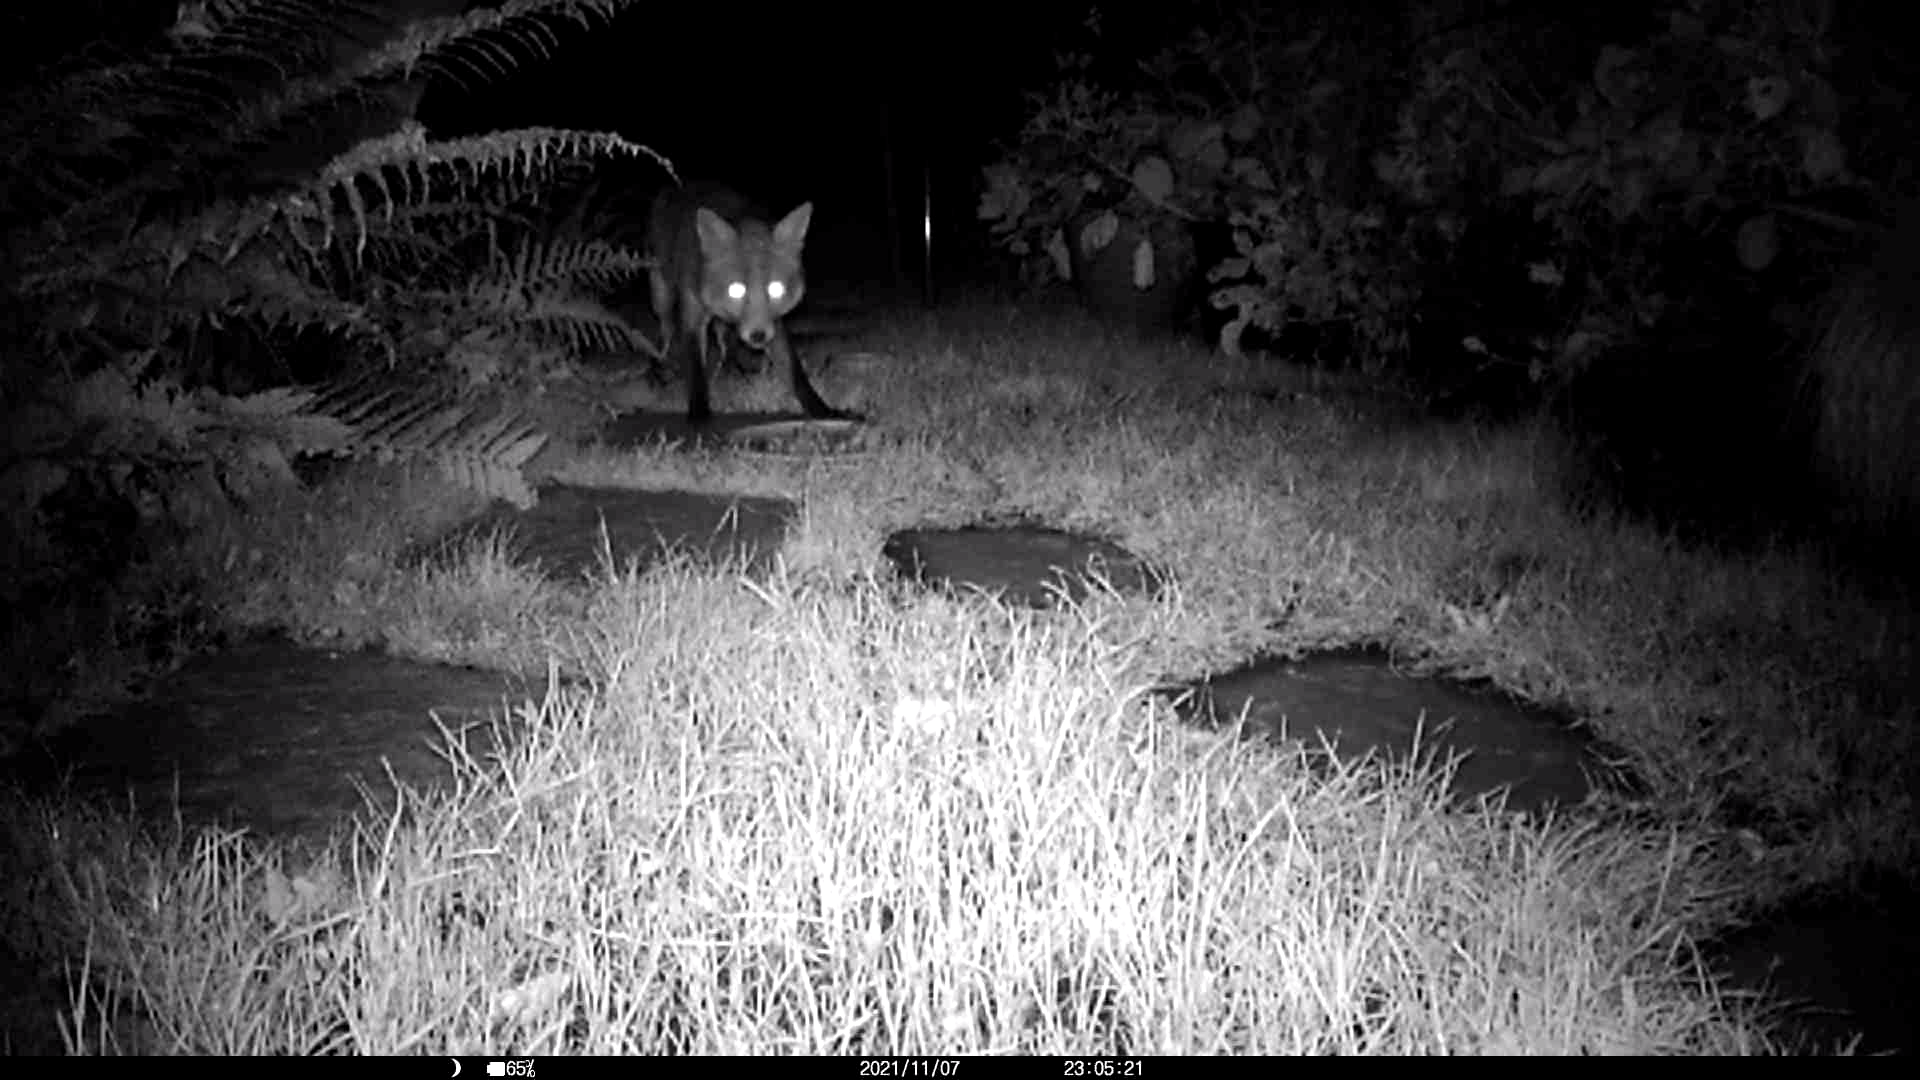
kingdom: Animalia
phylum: Chordata
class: Mammalia
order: Carnivora
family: Canidae
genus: Vulpes
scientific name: Vulpes vulpes
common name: Red fox
